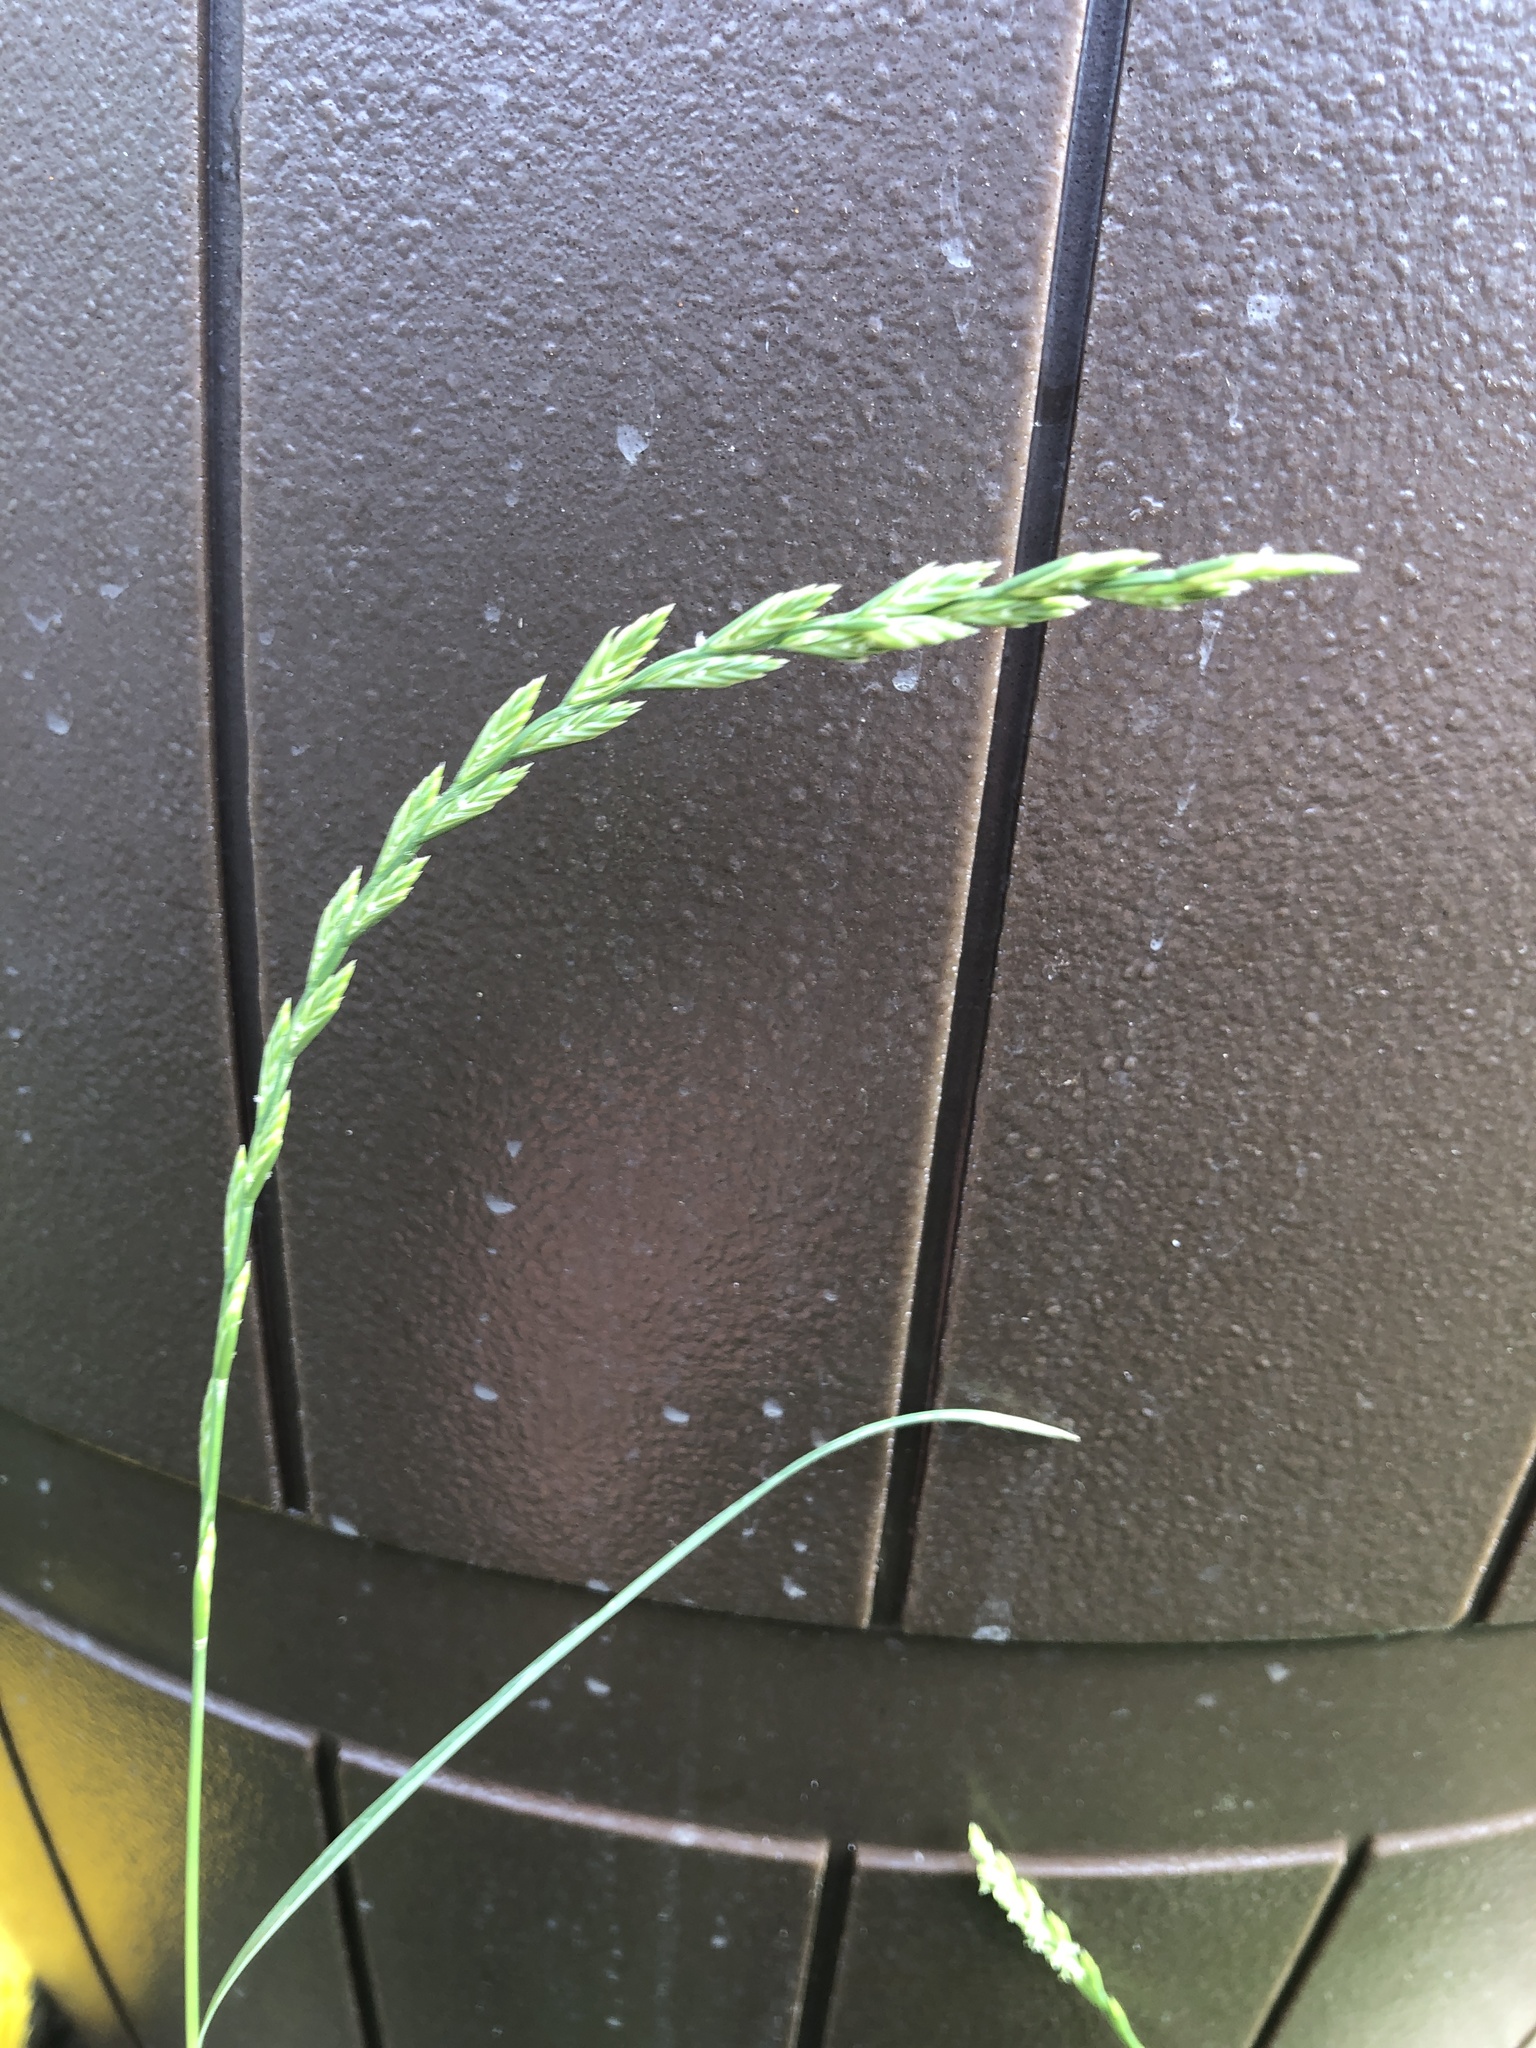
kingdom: Plantae
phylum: Tracheophyta
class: Liliopsida
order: Poales
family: Poaceae
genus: Lolium
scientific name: Lolium perenne
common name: Perennial ryegrass
